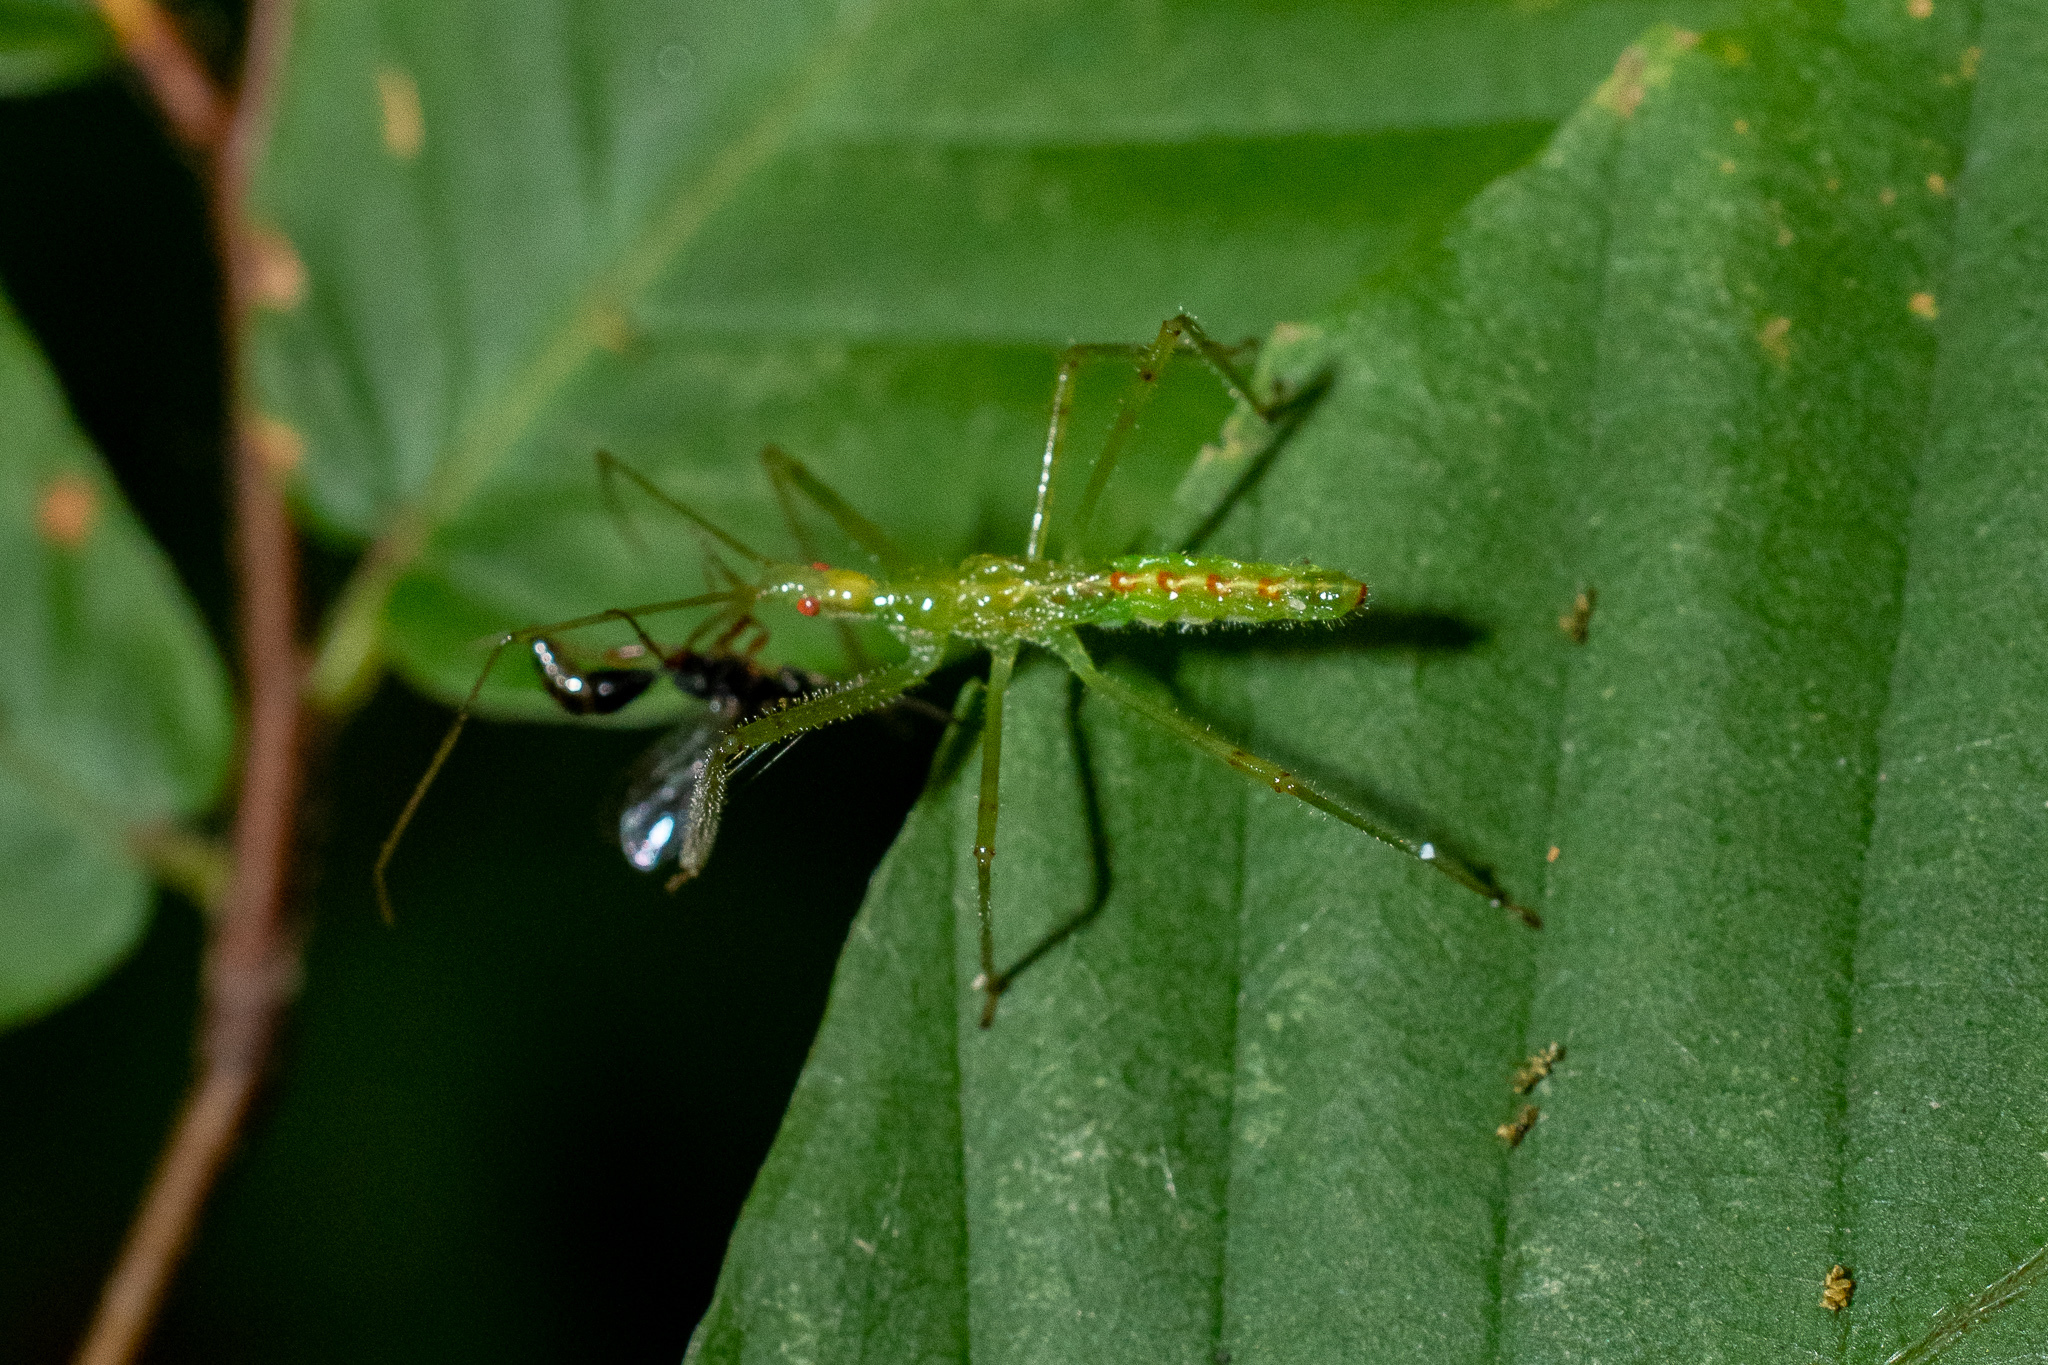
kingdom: Animalia
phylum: Arthropoda
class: Insecta
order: Hemiptera
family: Reduviidae
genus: Zelus
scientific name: Zelus luridus
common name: Pale green assassin bug
